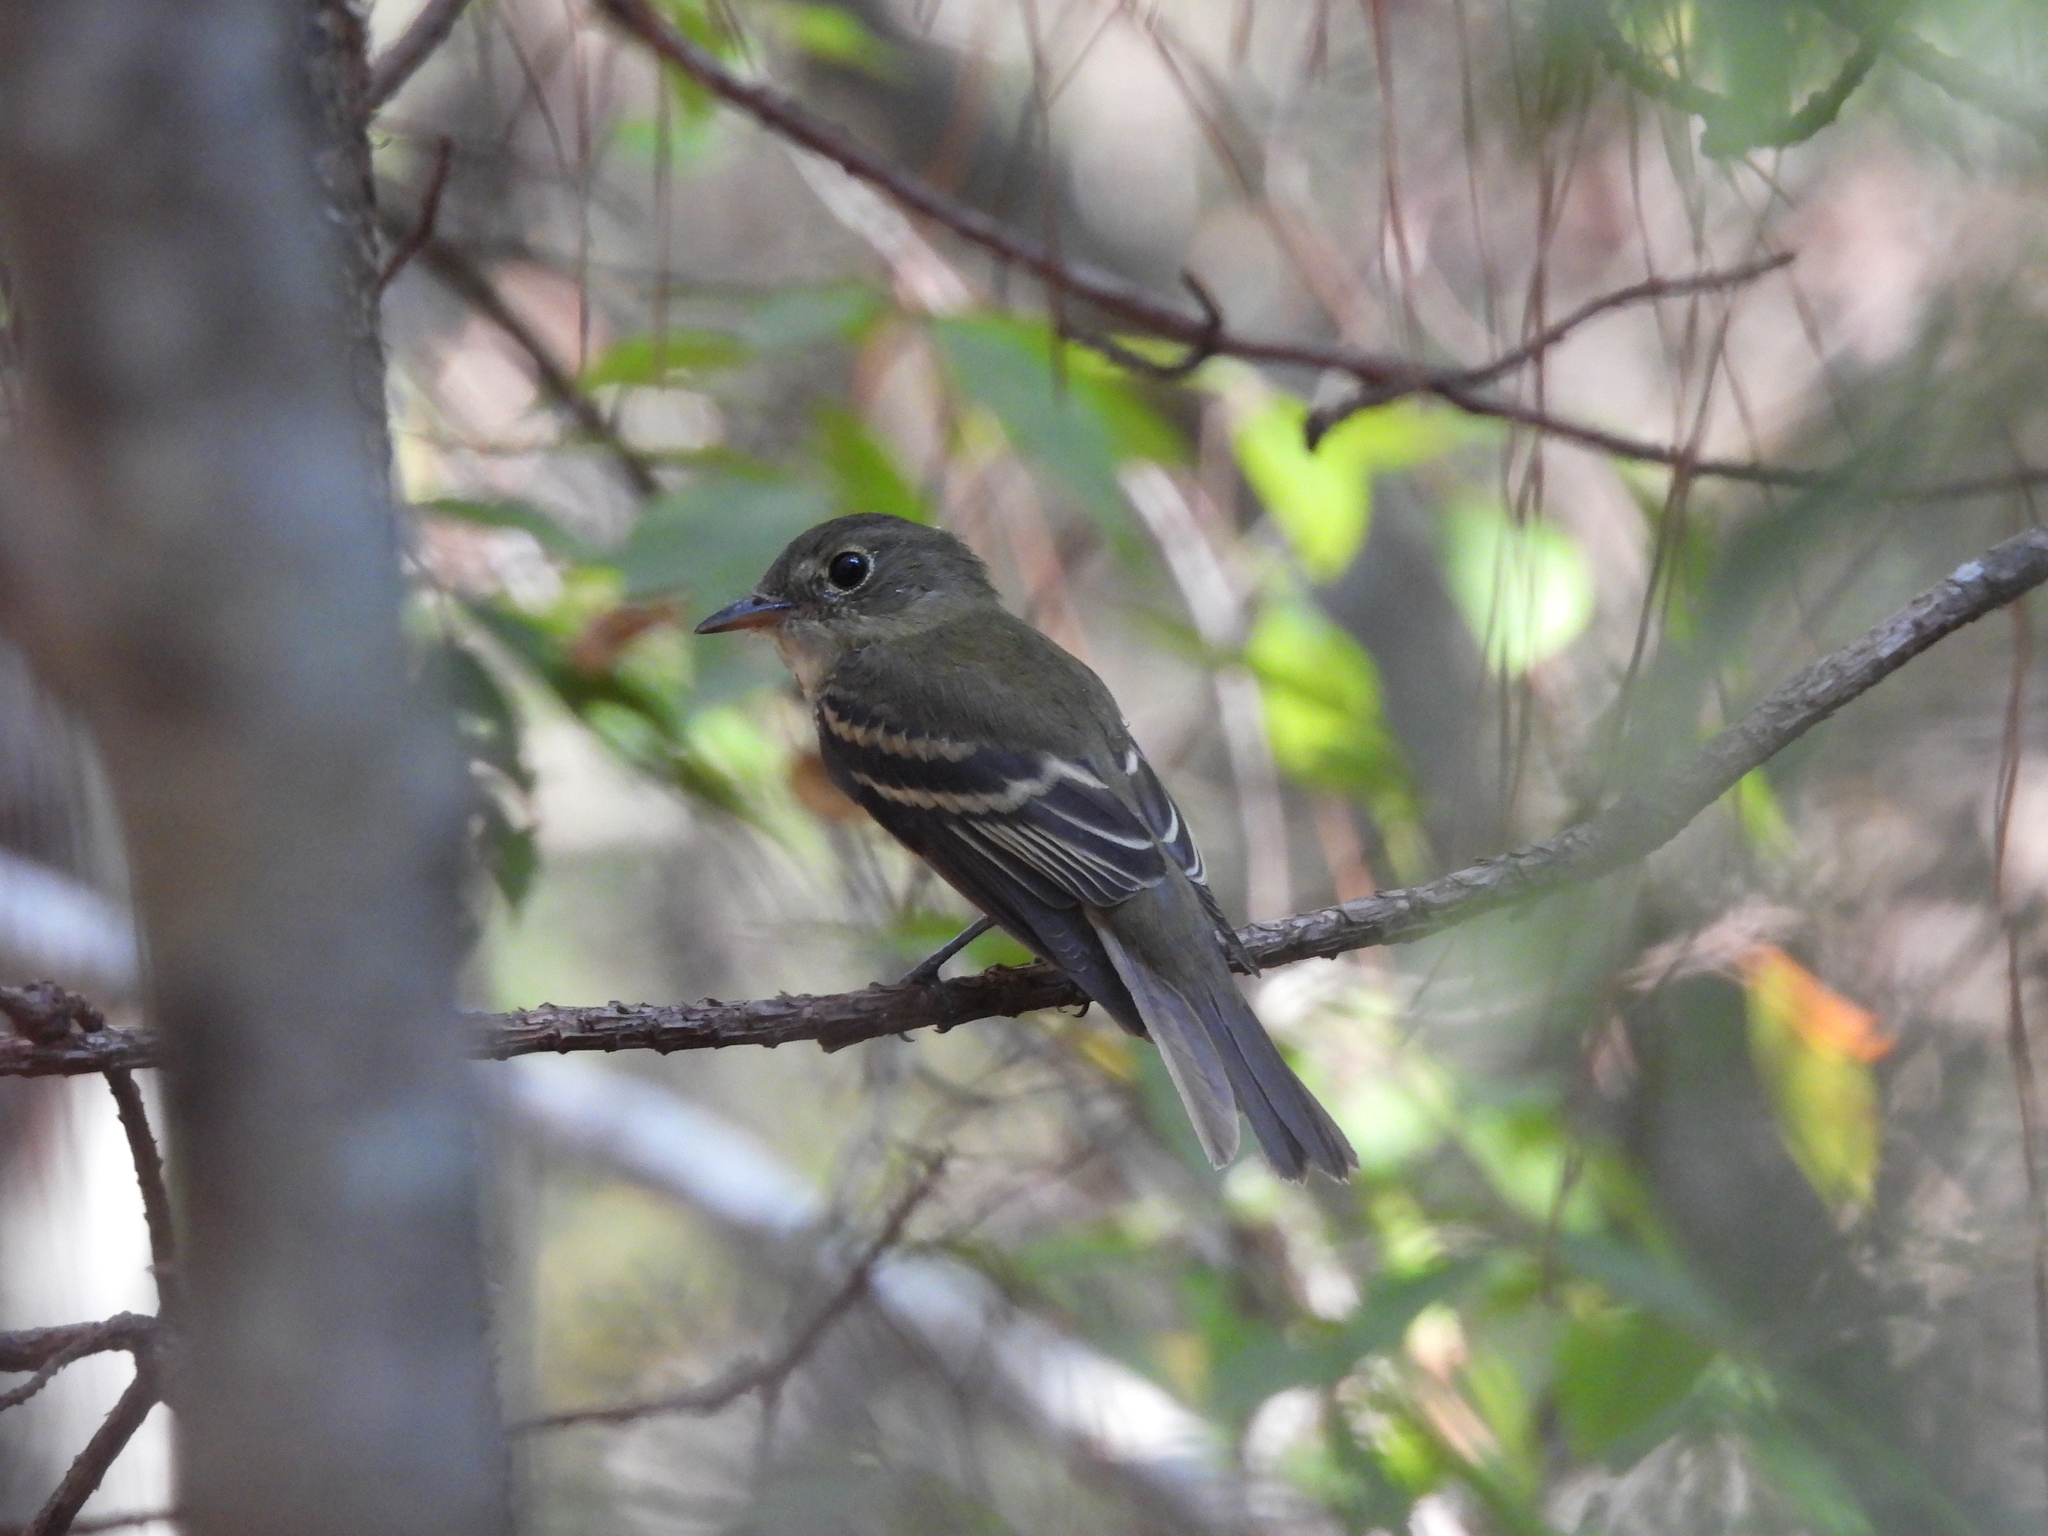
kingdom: Animalia
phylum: Chordata
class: Aves
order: Passeriformes
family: Tyrannidae
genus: Empidonax
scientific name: Empidonax virescens
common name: Acadian flycatcher
